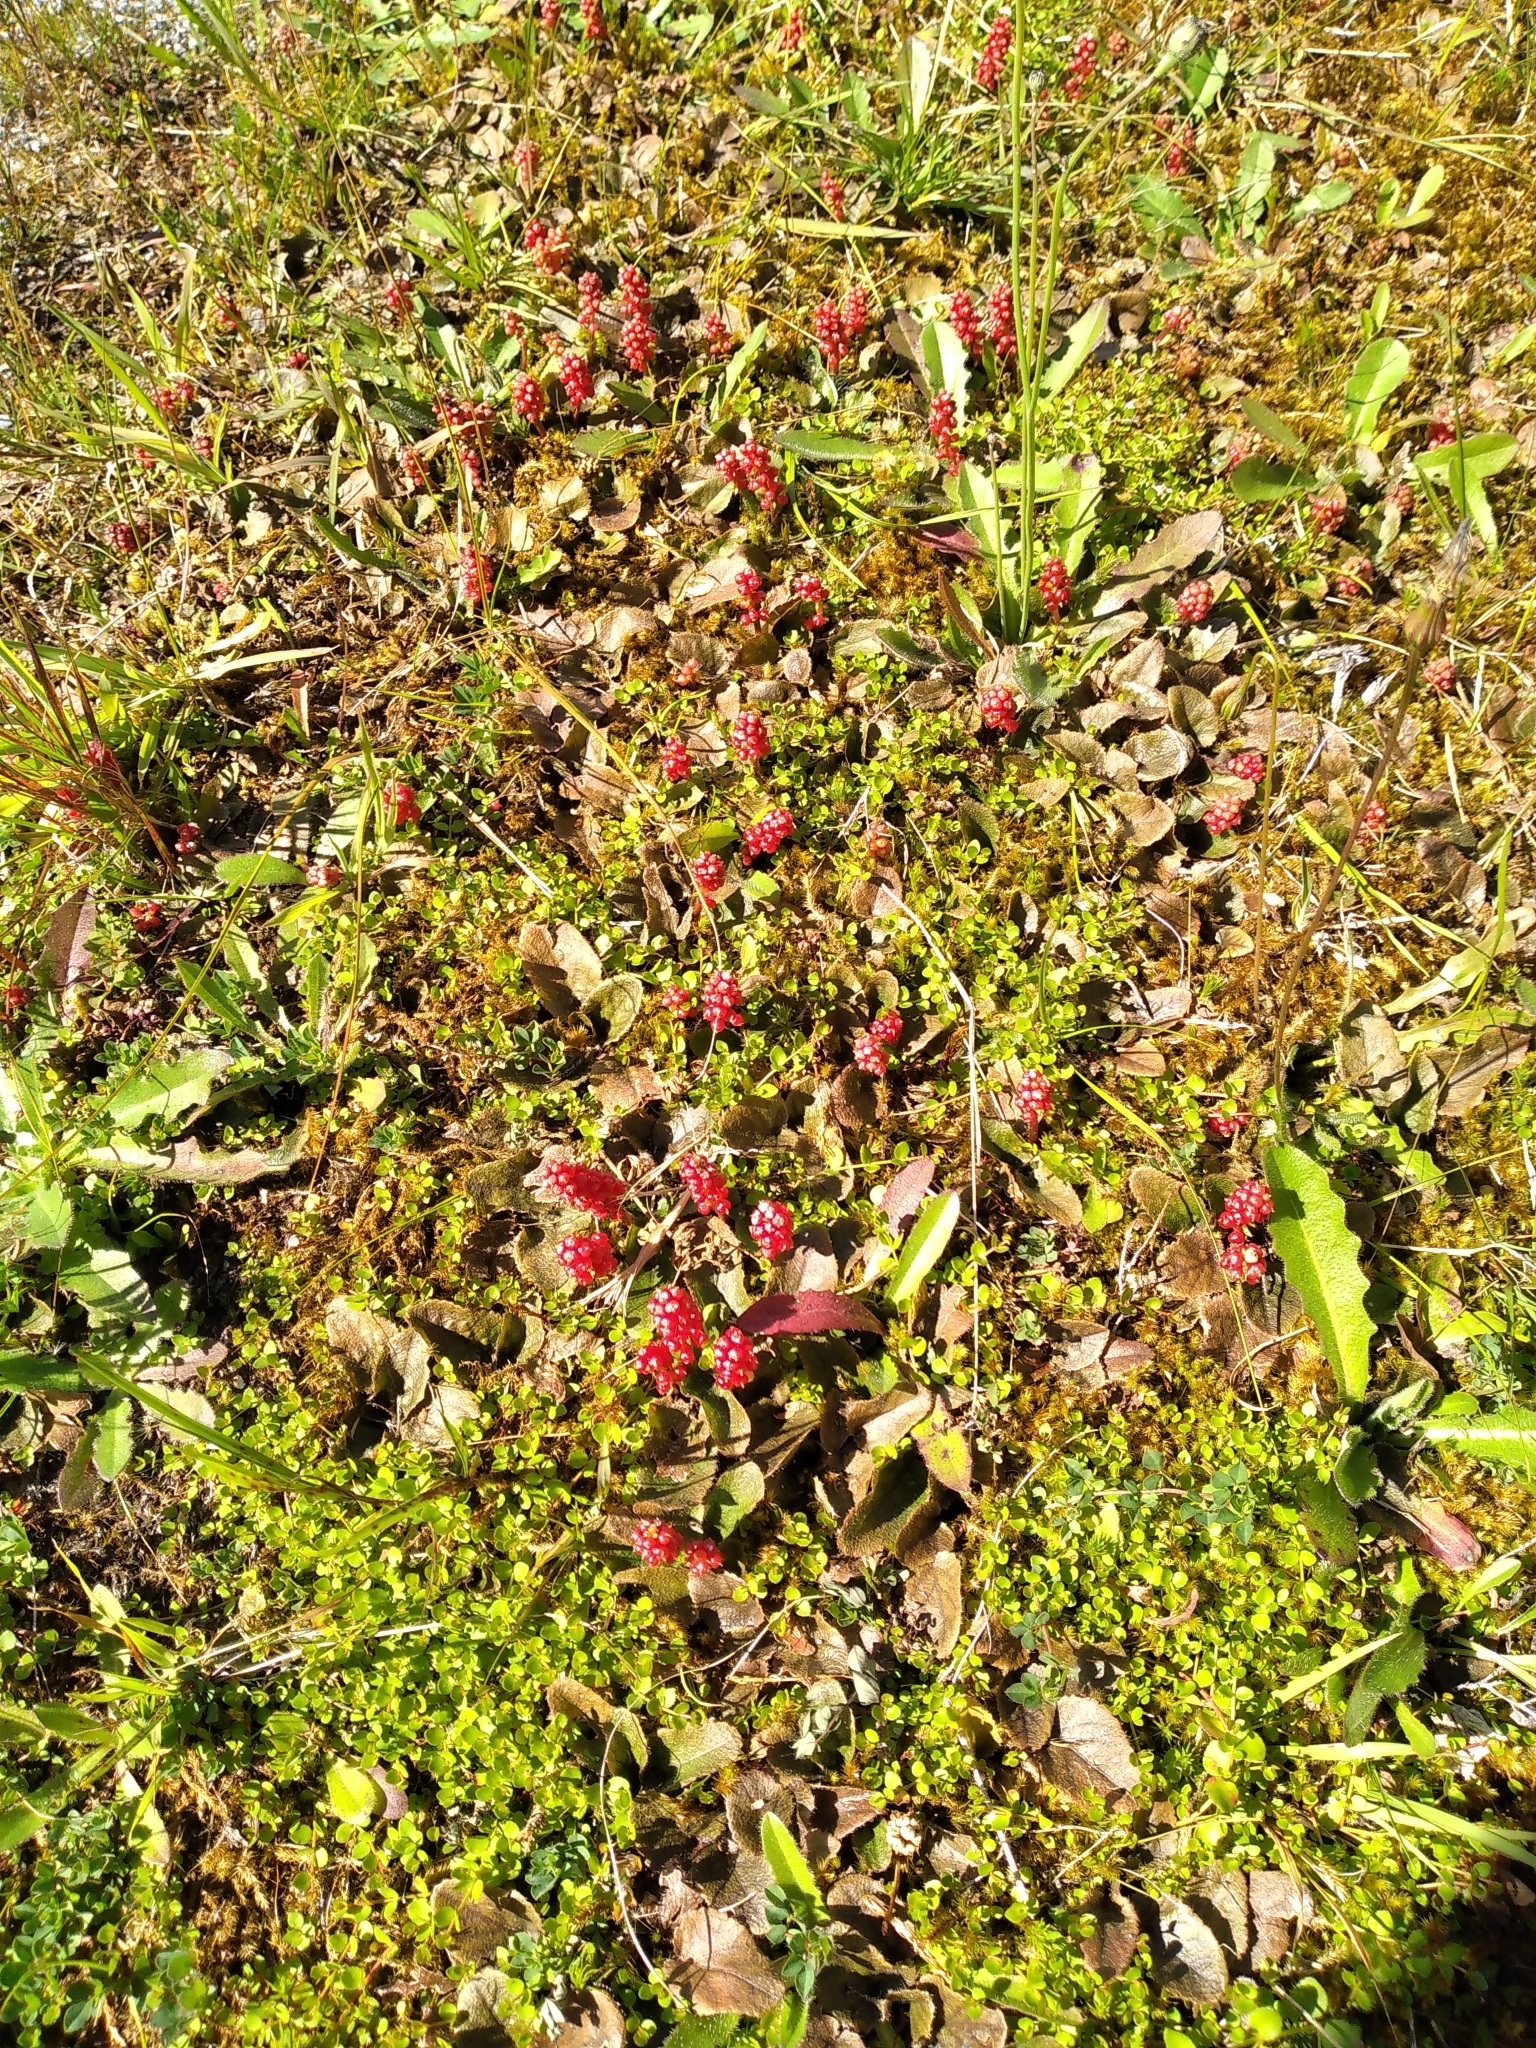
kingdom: Plantae
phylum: Tracheophyta
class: Magnoliopsida
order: Gunnerales
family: Gunneraceae
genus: Gunnera
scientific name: Gunnera prorepens
